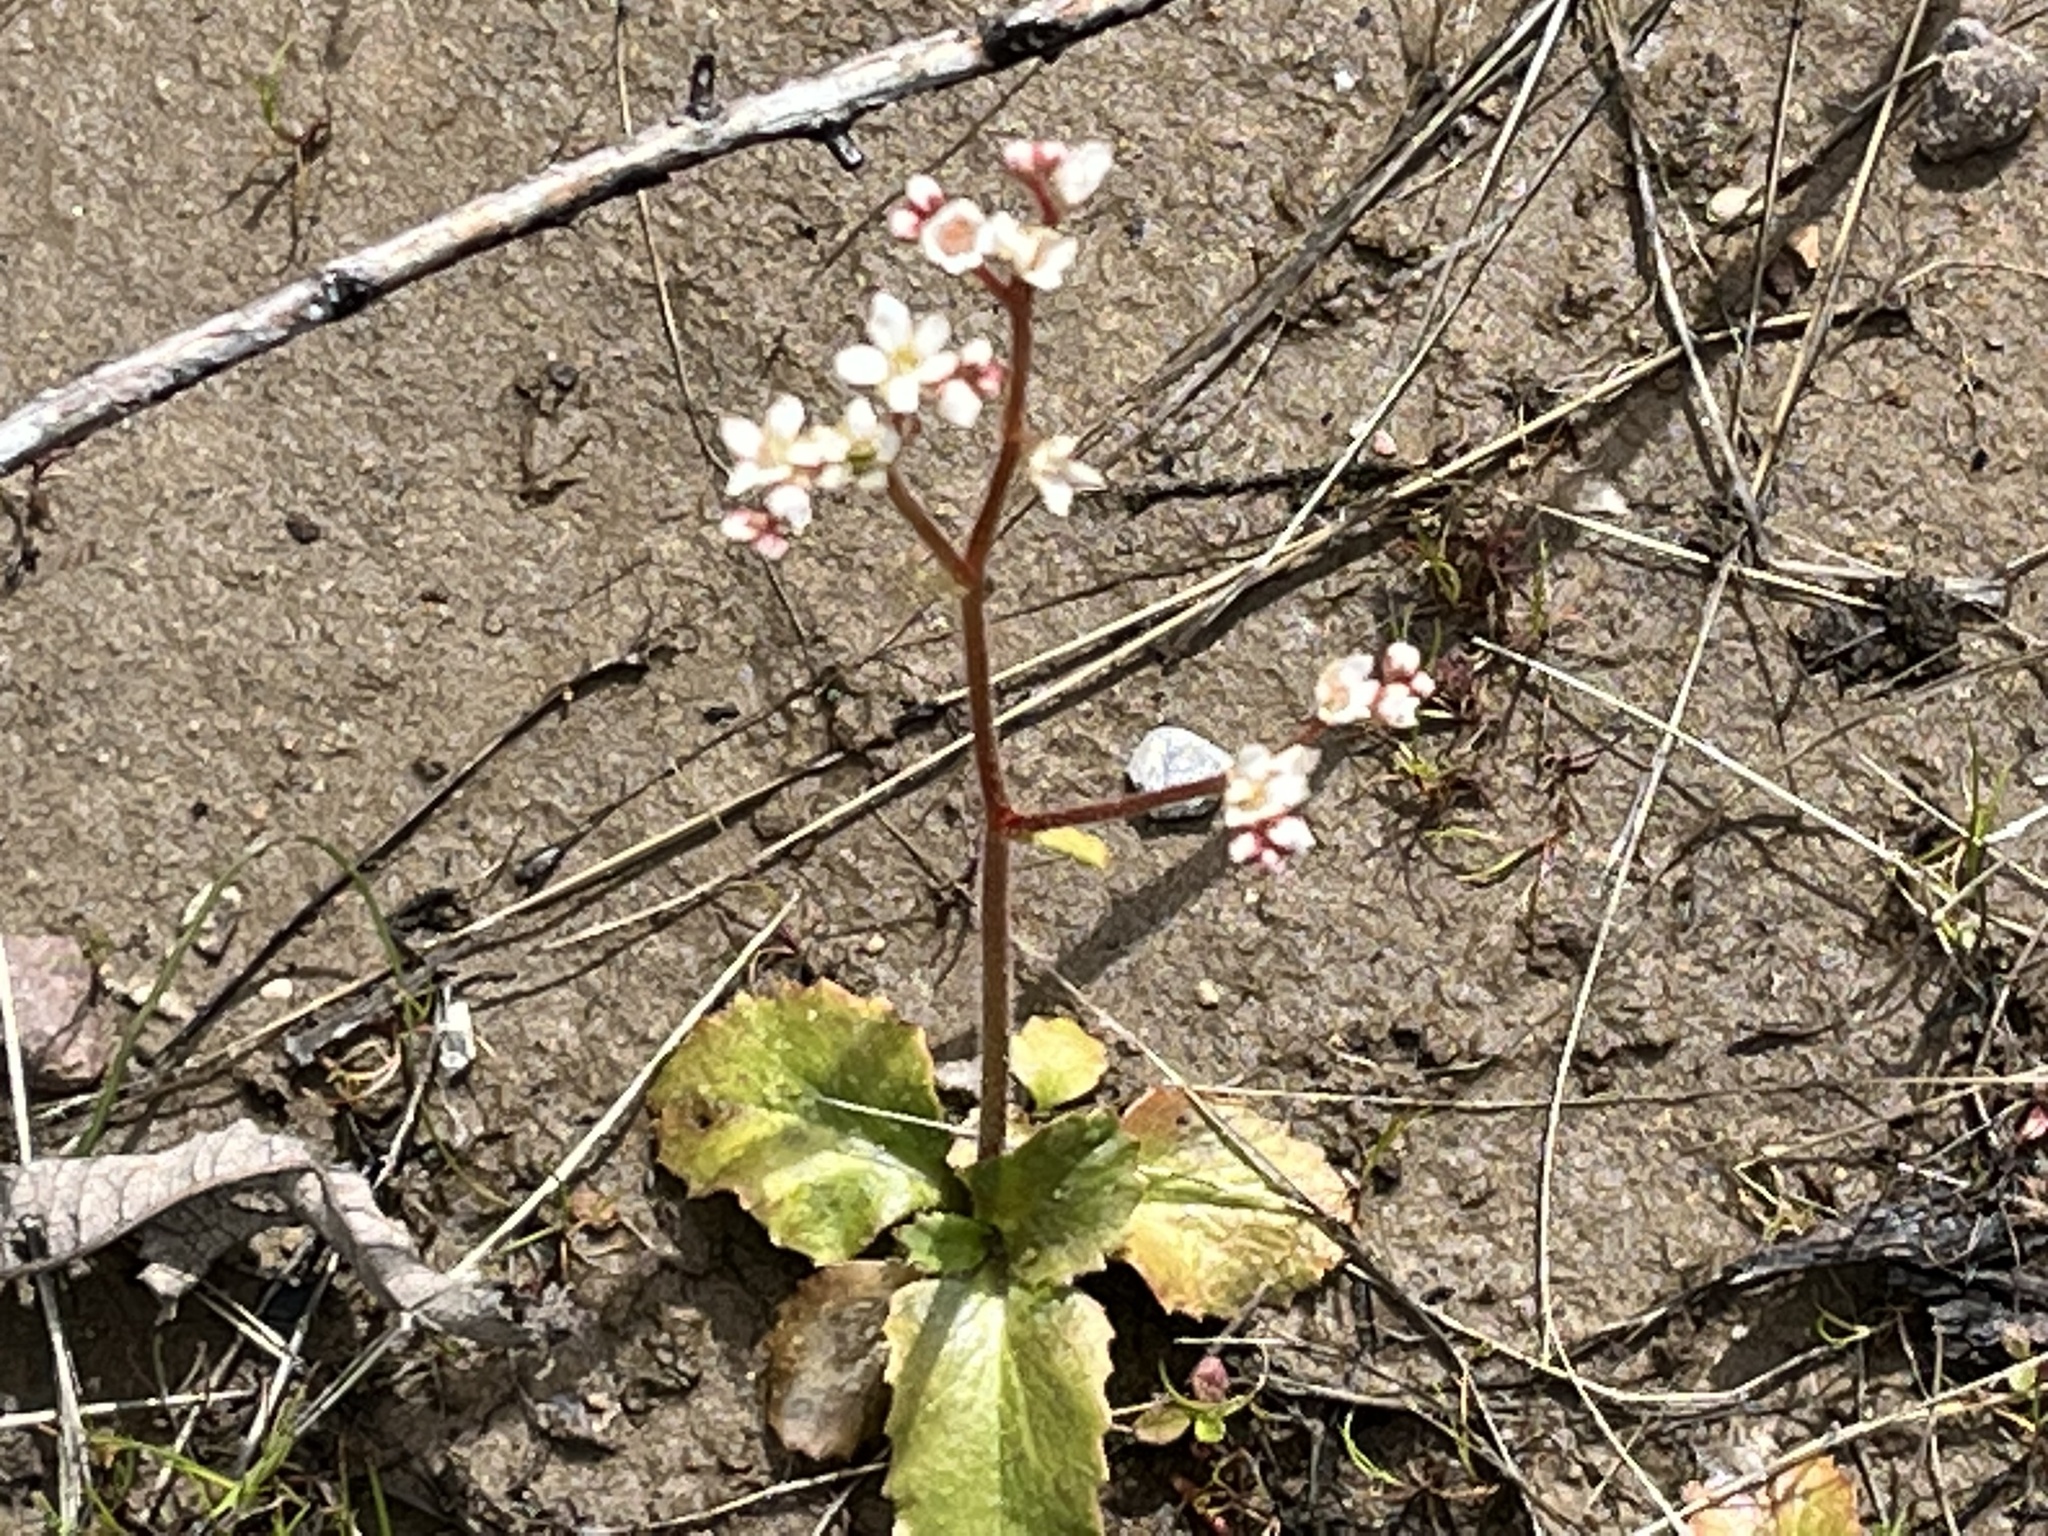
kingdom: Plantae
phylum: Tracheophyta
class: Magnoliopsida
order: Saxifragales
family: Saxifragaceae
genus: Micranthes
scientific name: Micranthes californica
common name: California saxifrage
